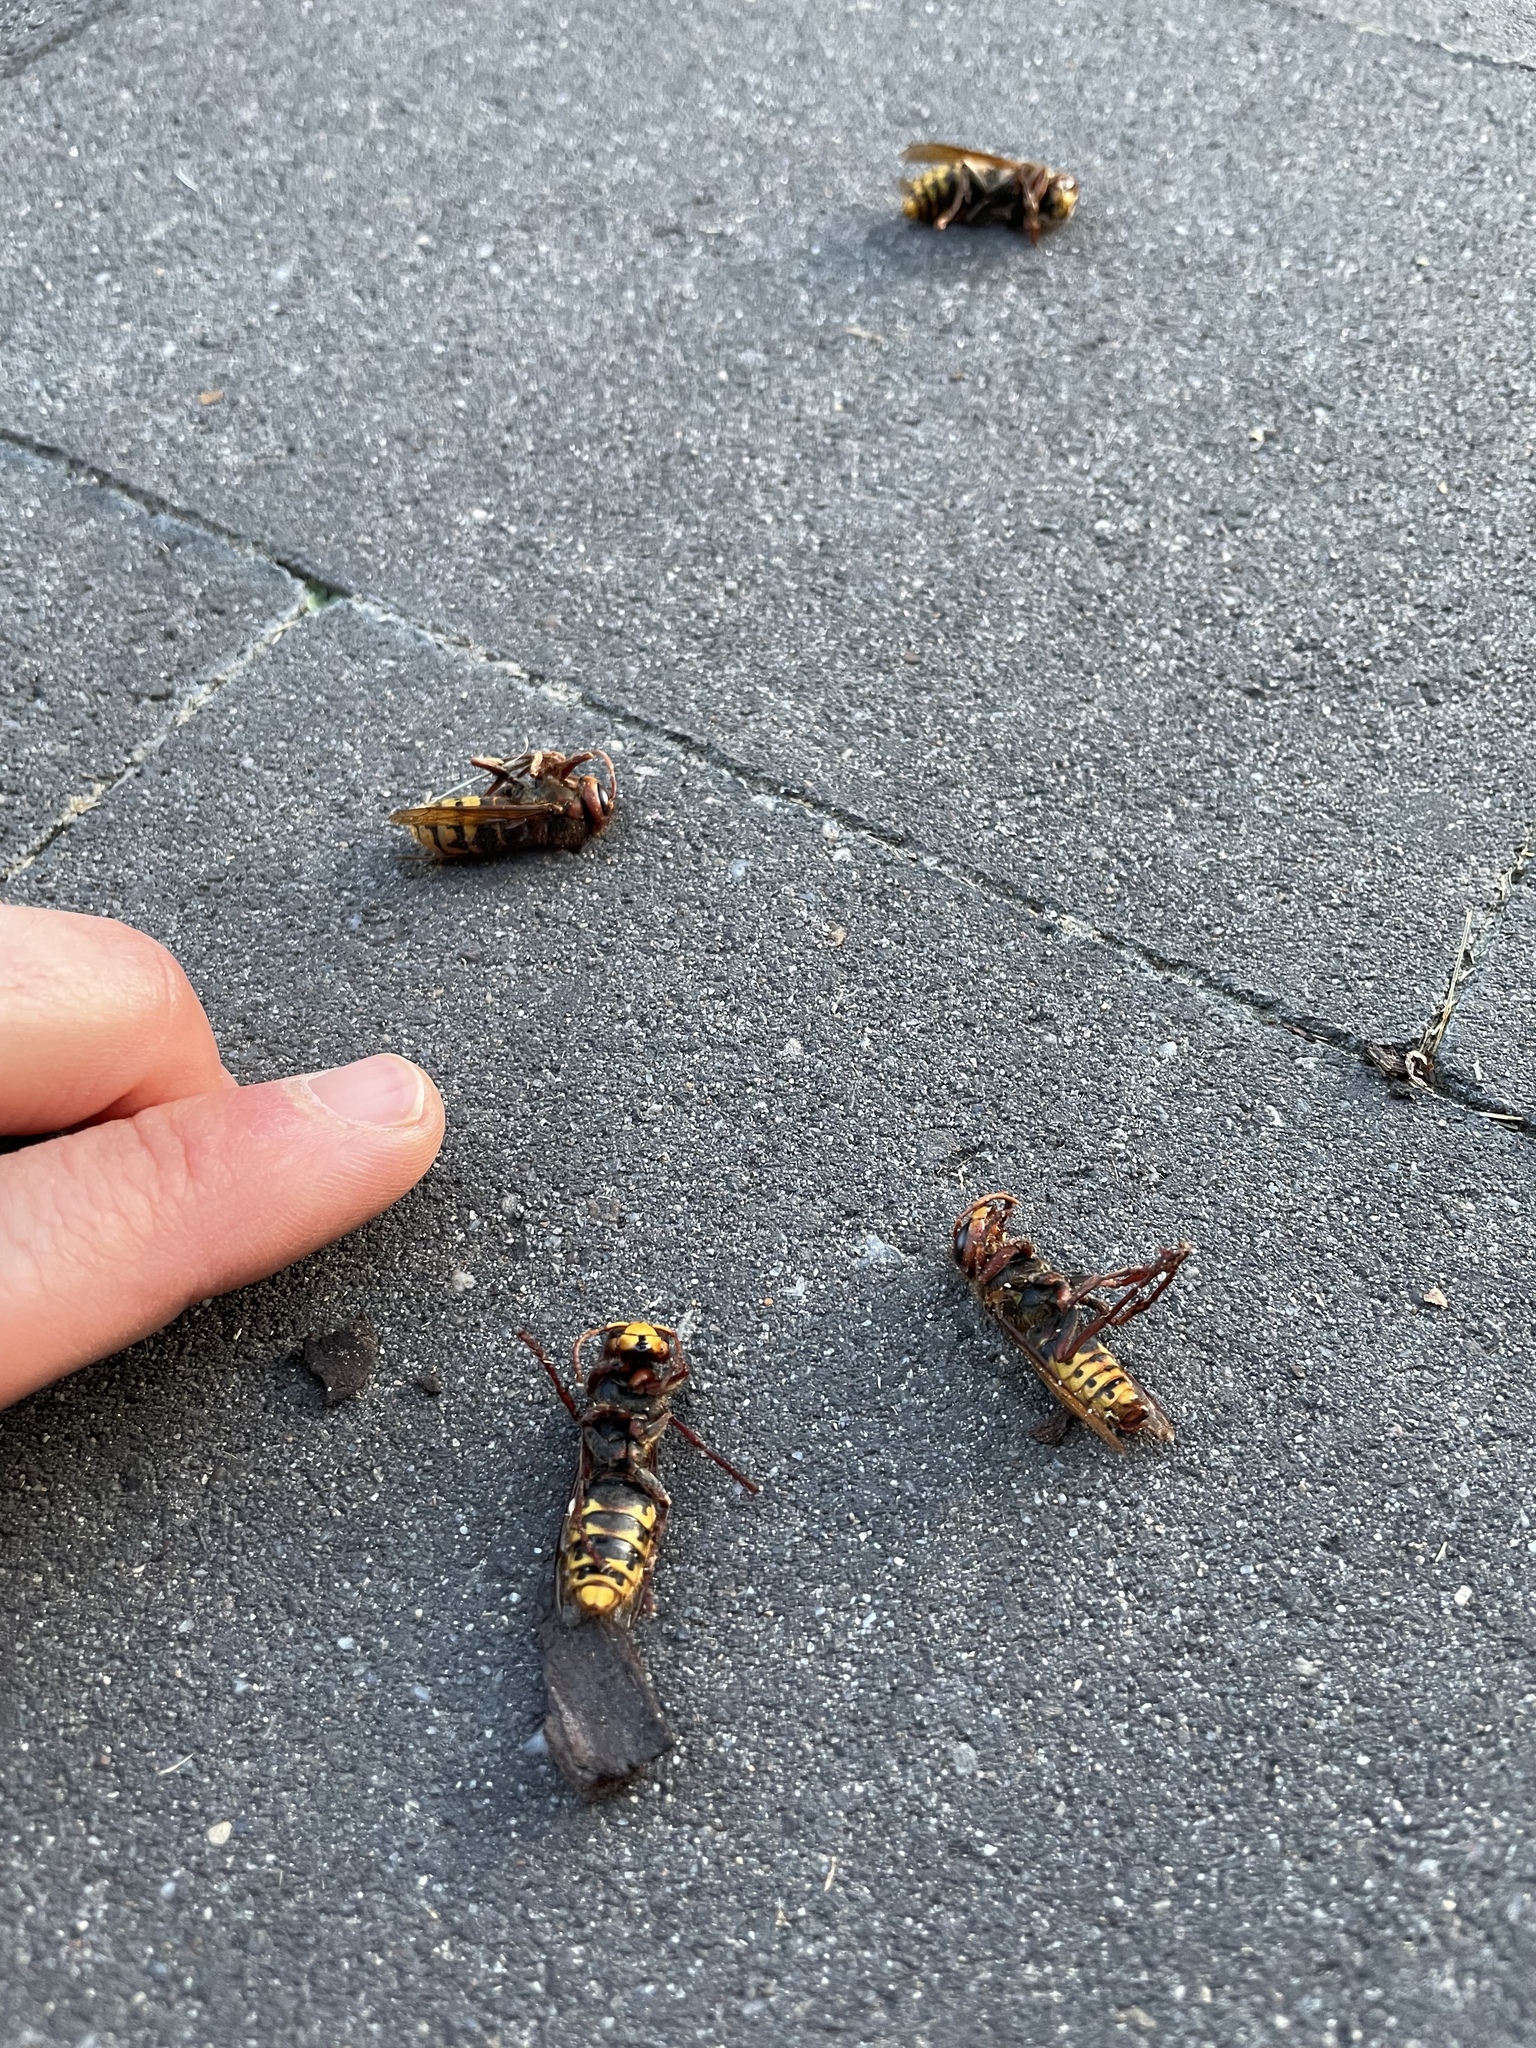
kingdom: Animalia
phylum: Arthropoda
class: Insecta
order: Hymenoptera
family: Vespidae
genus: Vespa
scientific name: Vespa crabro
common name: Hornet
